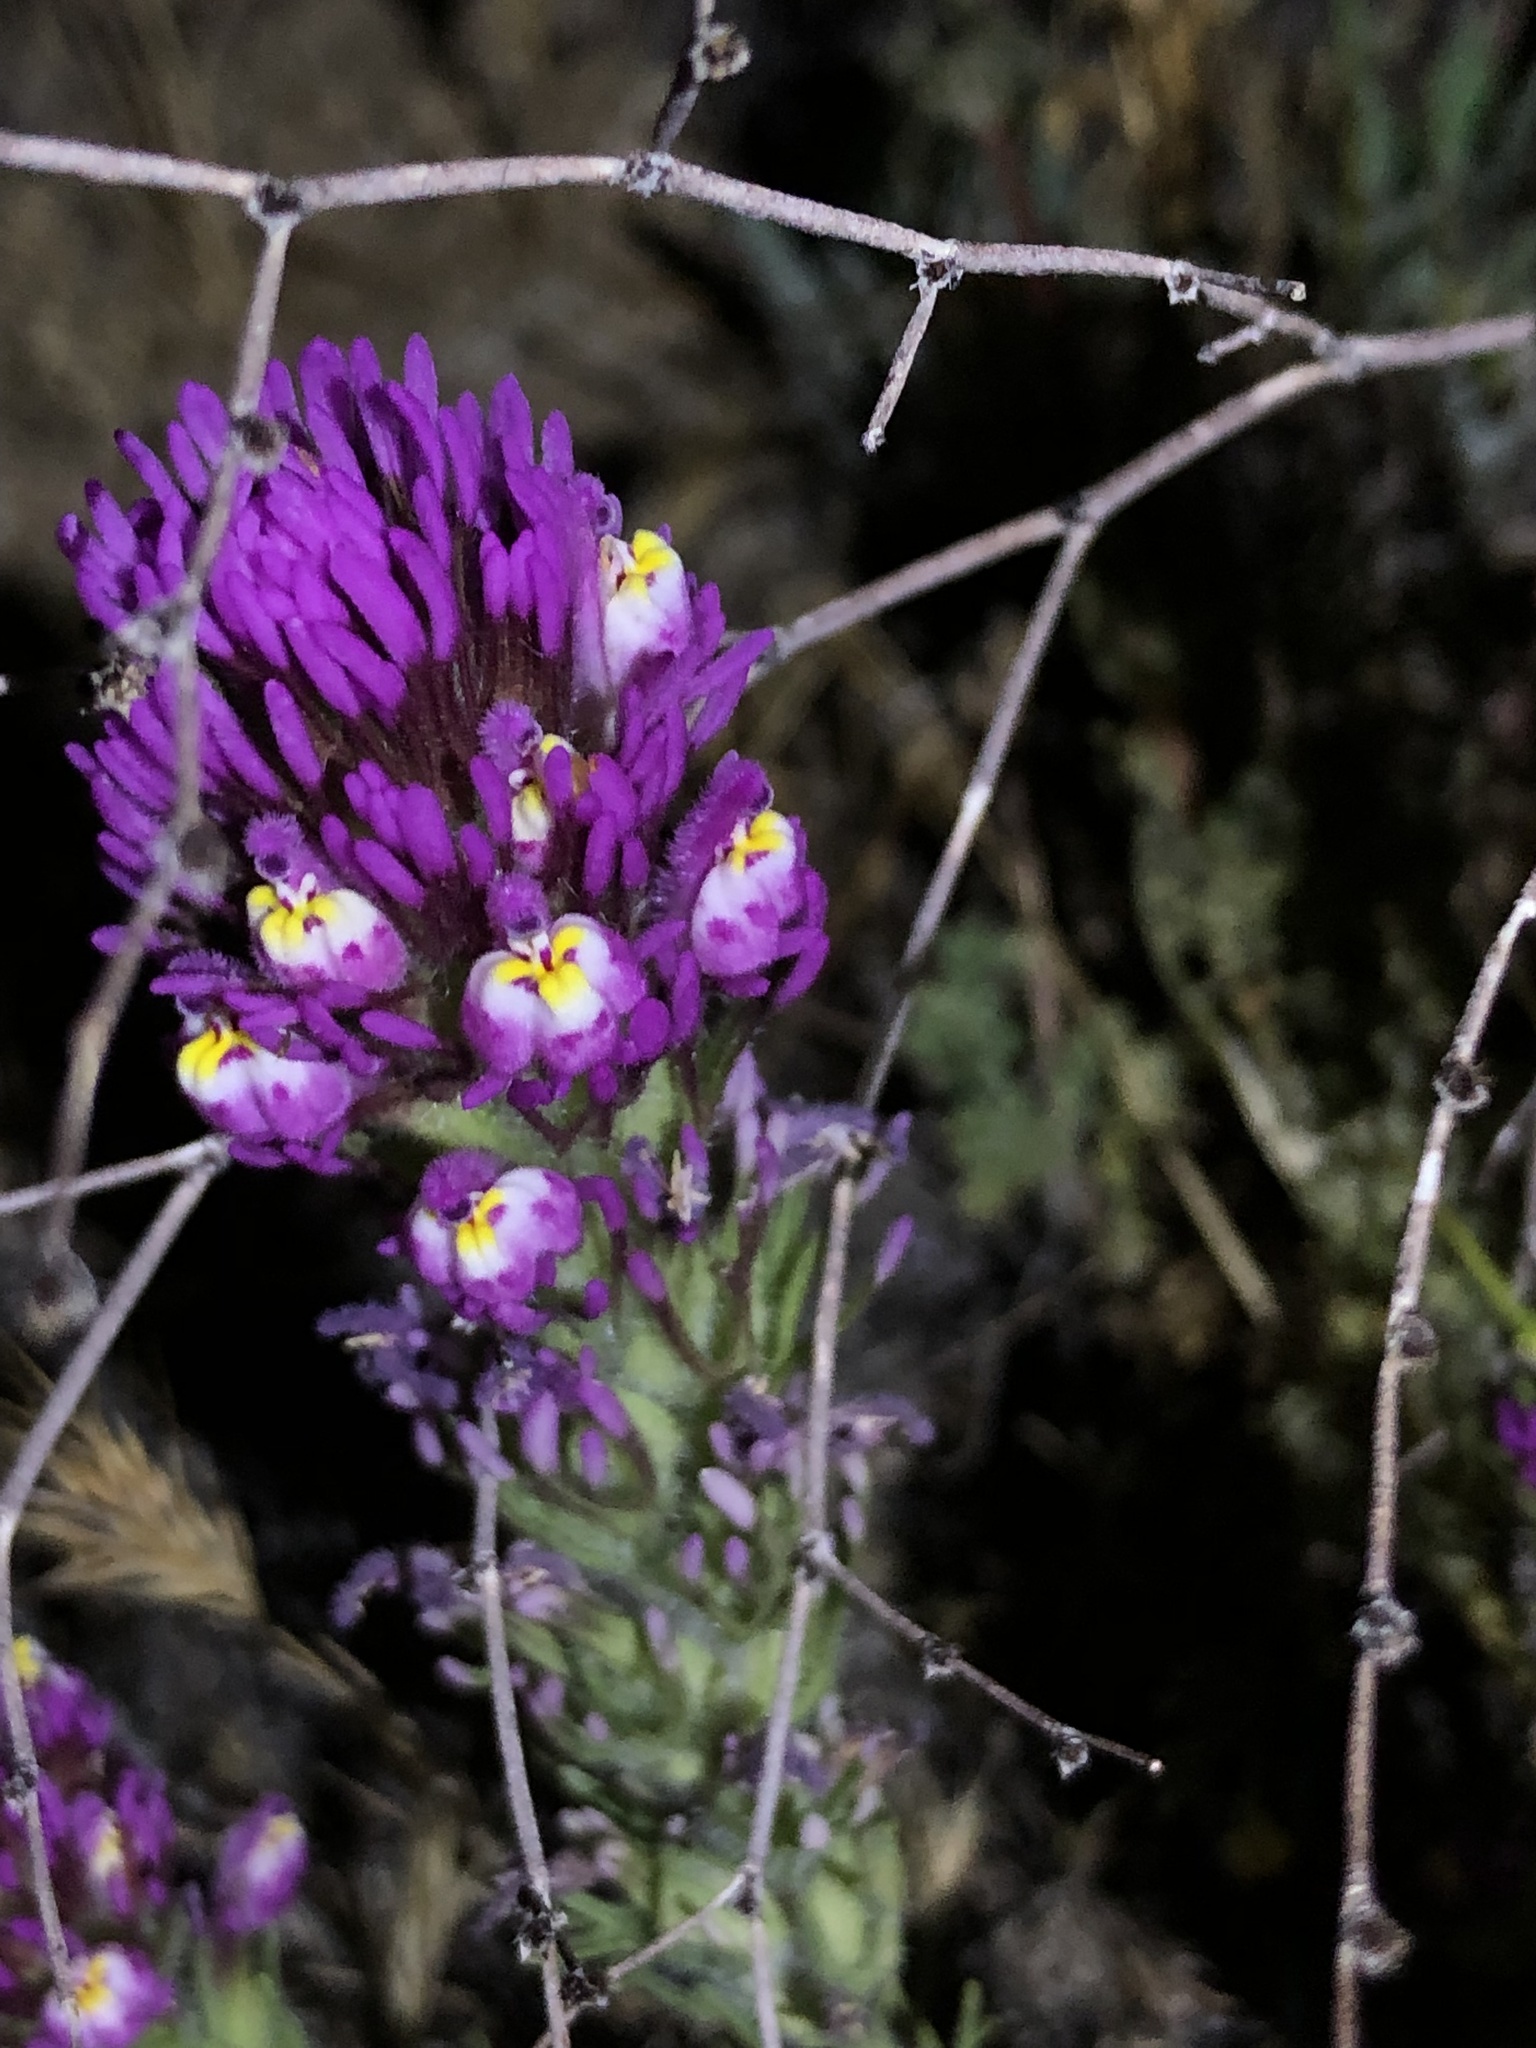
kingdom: Plantae
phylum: Tracheophyta
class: Magnoliopsida
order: Lamiales
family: Orobanchaceae
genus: Castilleja
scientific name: Castilleja exserta
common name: Purple owl-clover
